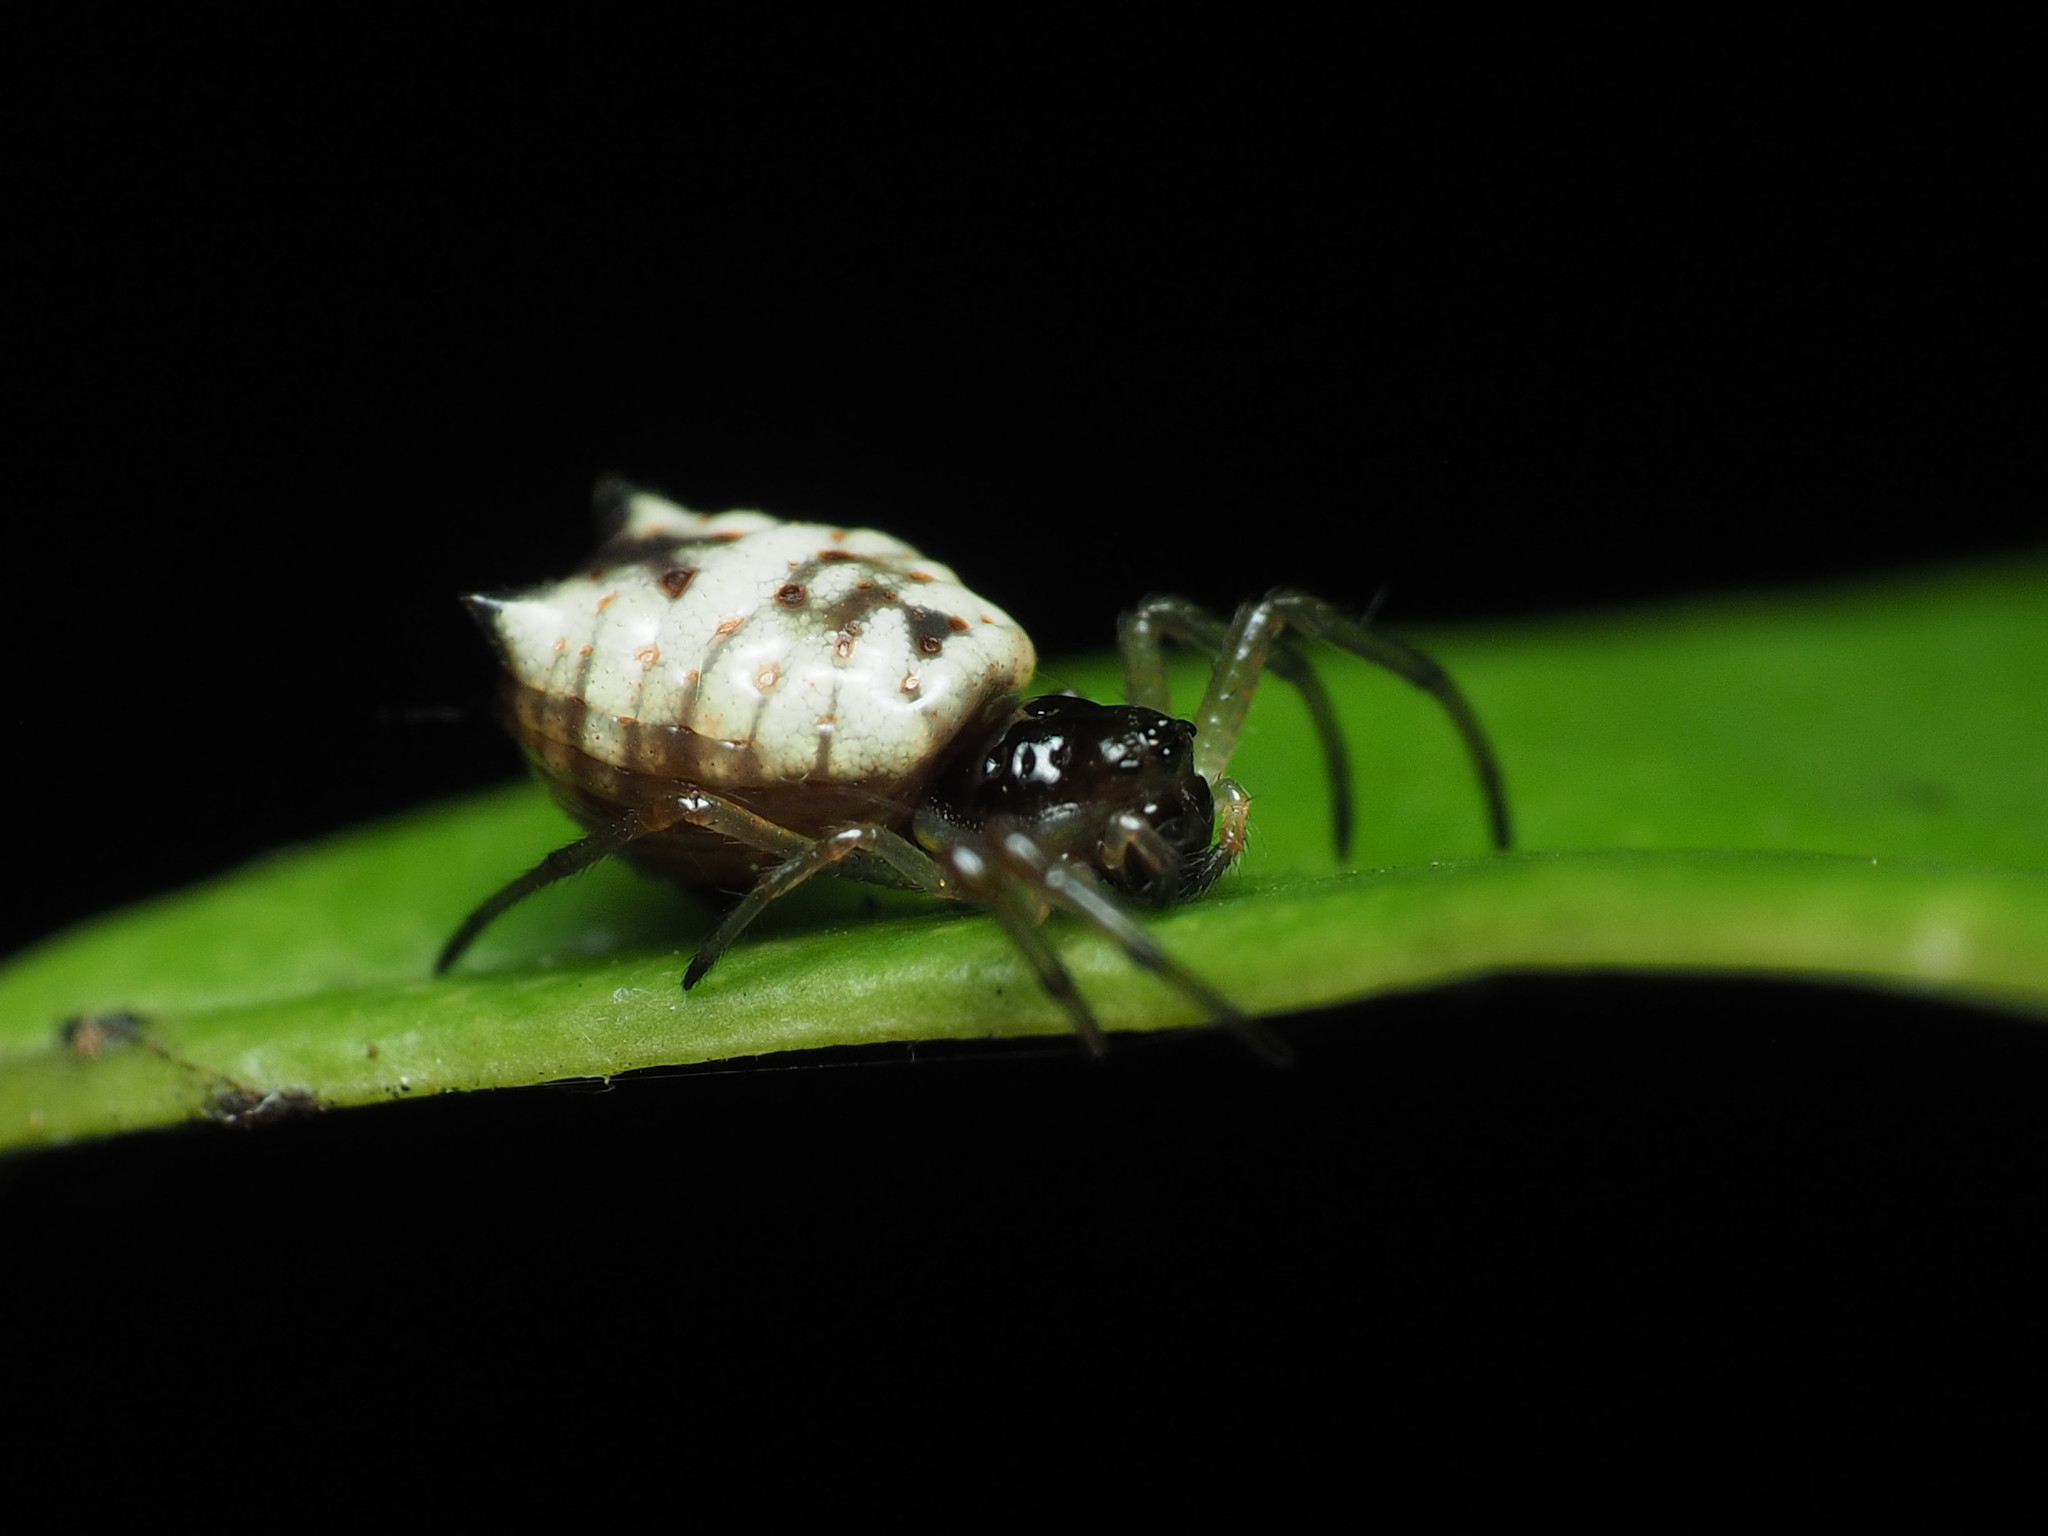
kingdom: Animalia
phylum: Arthropoda
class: Arachnida
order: Araneae
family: Araneidae
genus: Micrathena
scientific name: Micrathena mitrata
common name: Orb weavers
